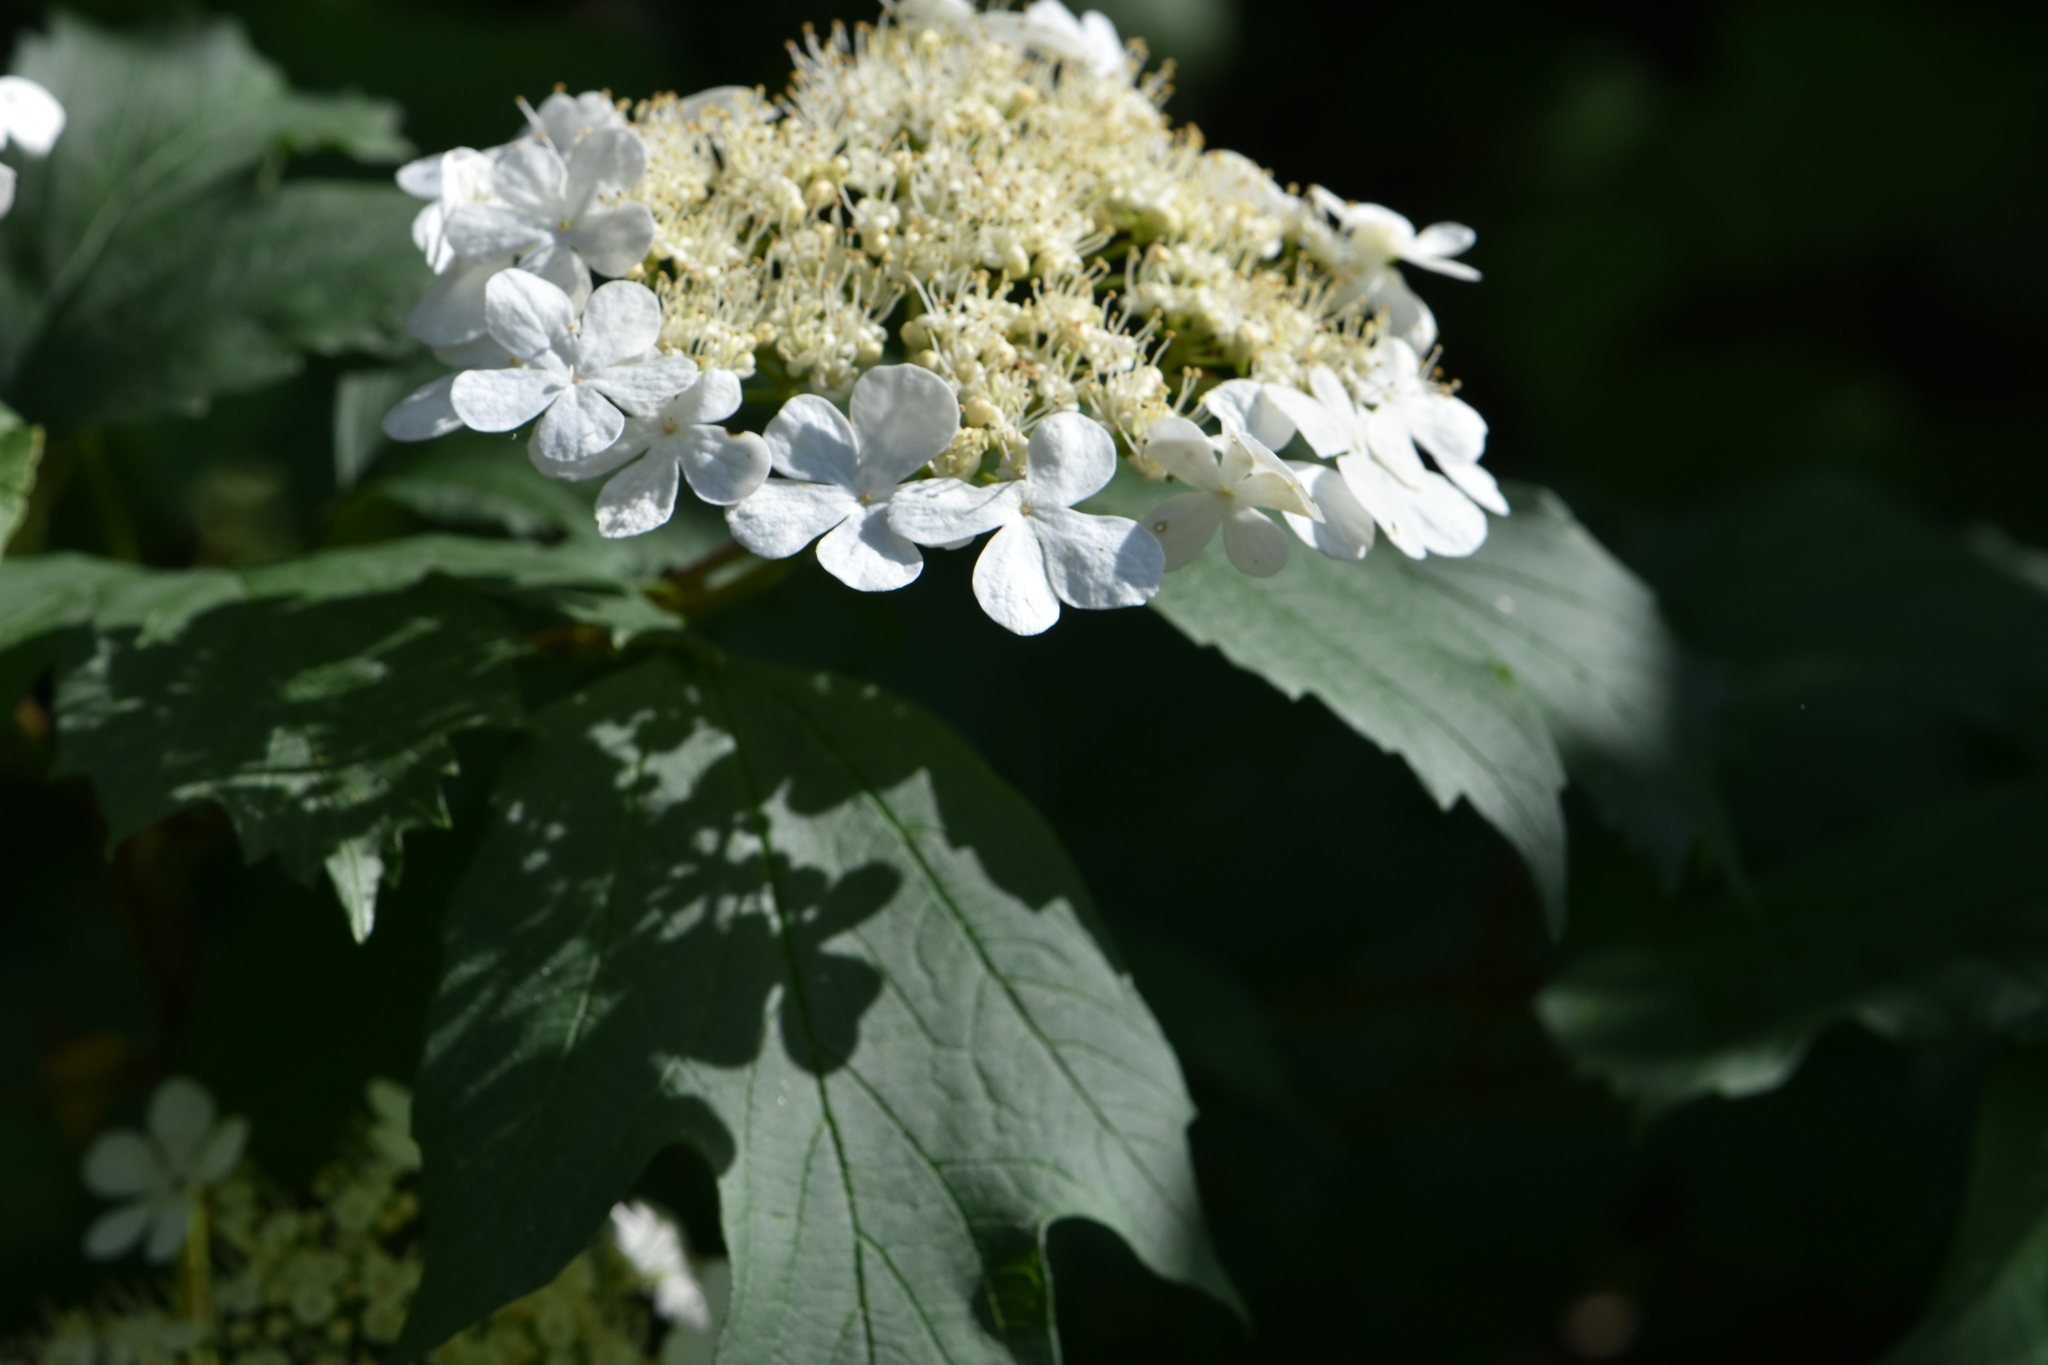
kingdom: Plantae
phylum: Tracheophyta
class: Magnoliopsida
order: Dipsacales
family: Viburnaceae
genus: Viburnum
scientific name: Viburnum opulus
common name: Guelder-rose
